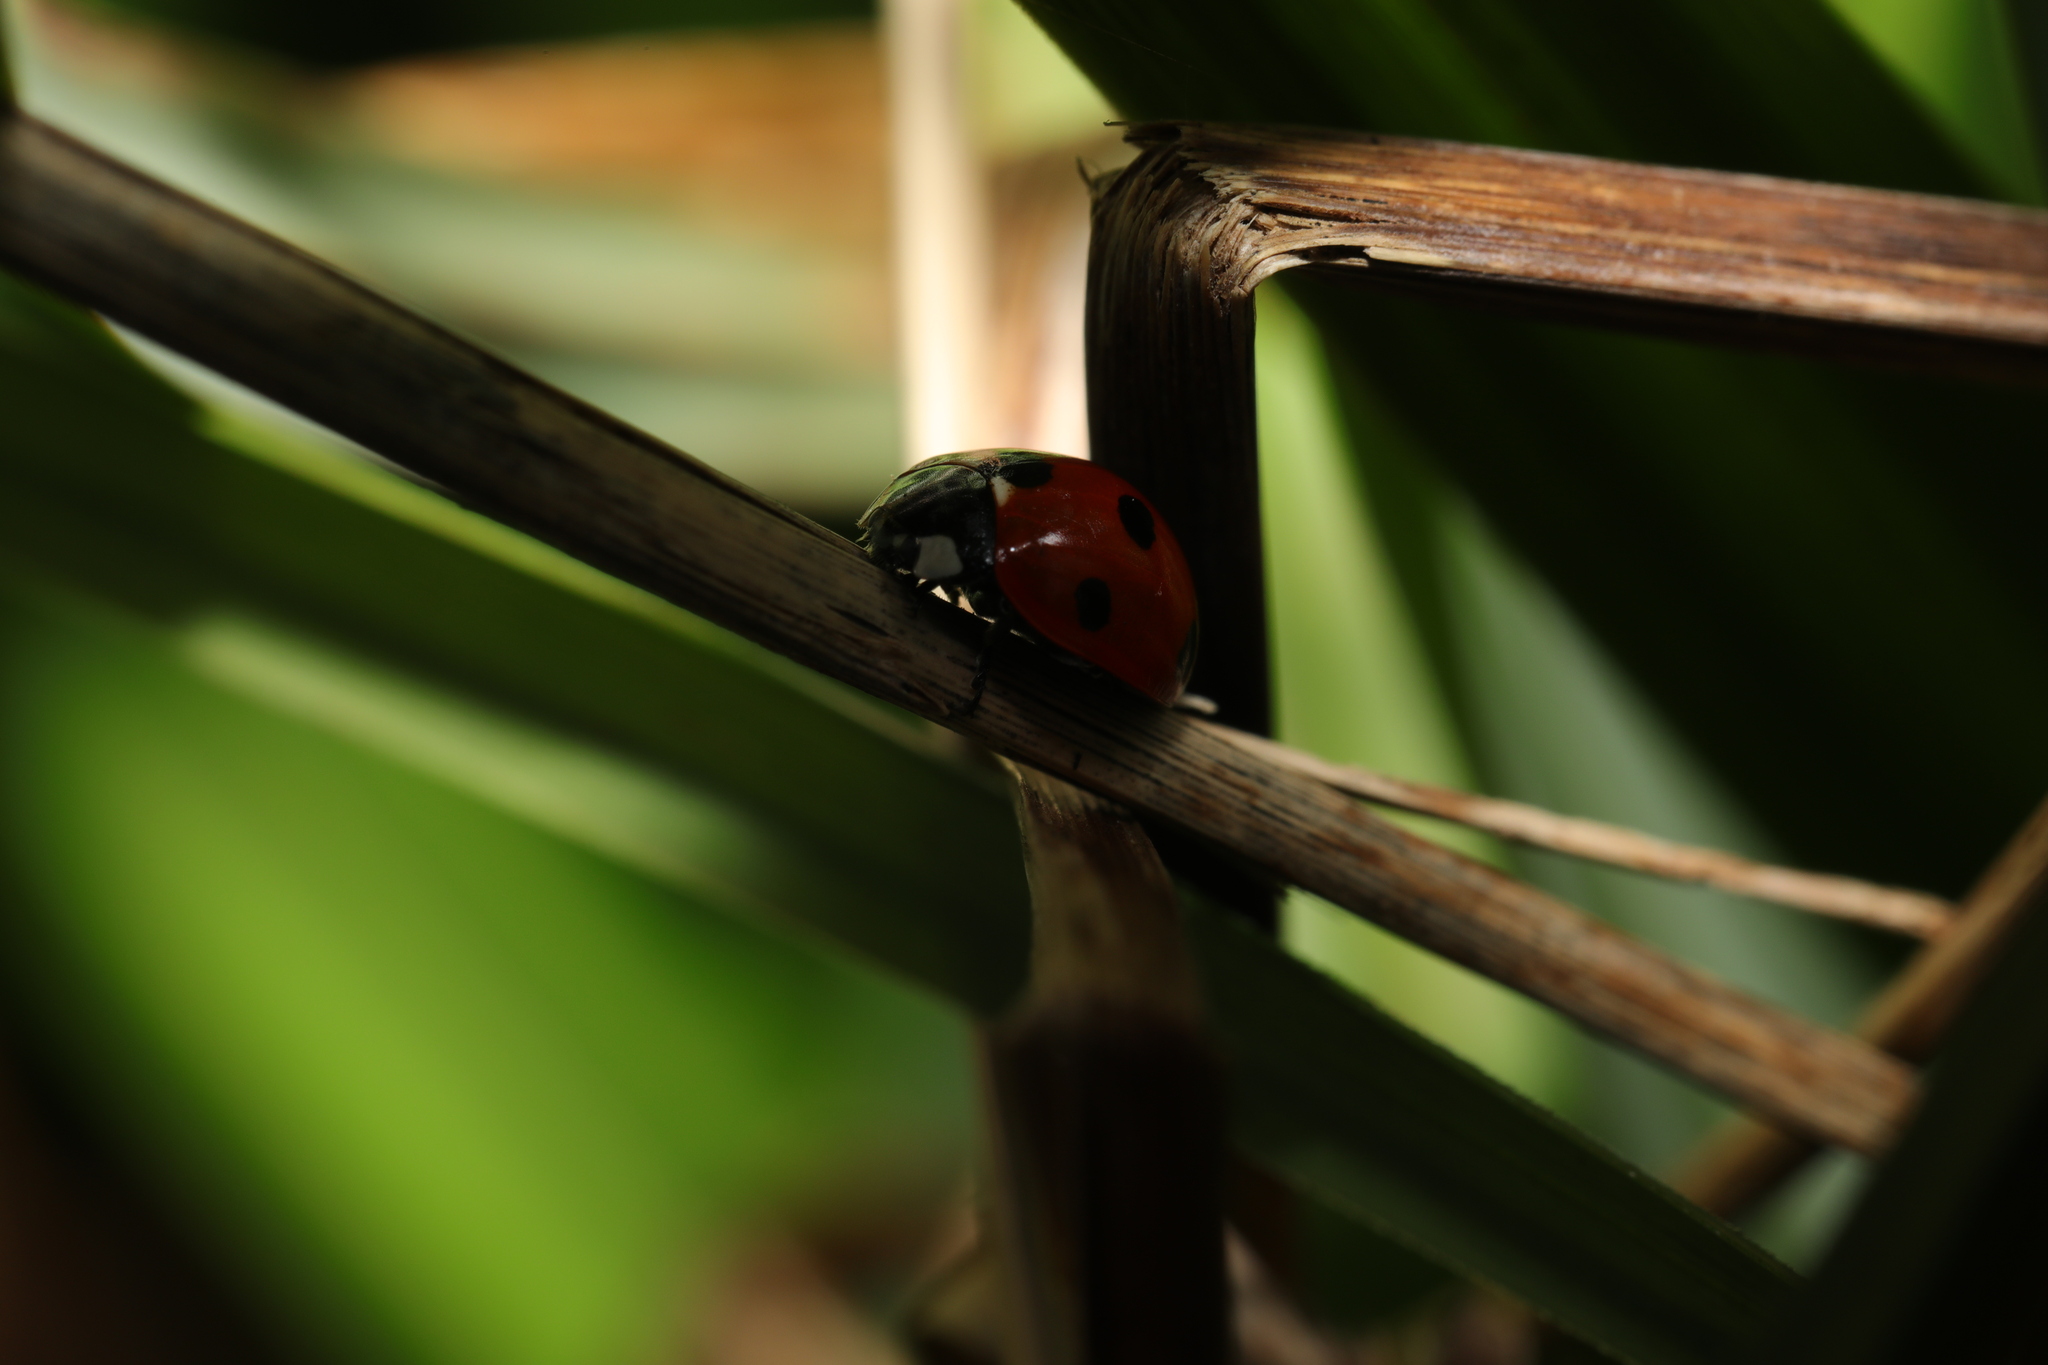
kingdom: Animalia
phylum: Arthropoda
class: Insecta
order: Coleoptera
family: Coccinellidae
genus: Coccinella
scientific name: Coccinella septempunctata
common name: Sevenspotted lady beetle
